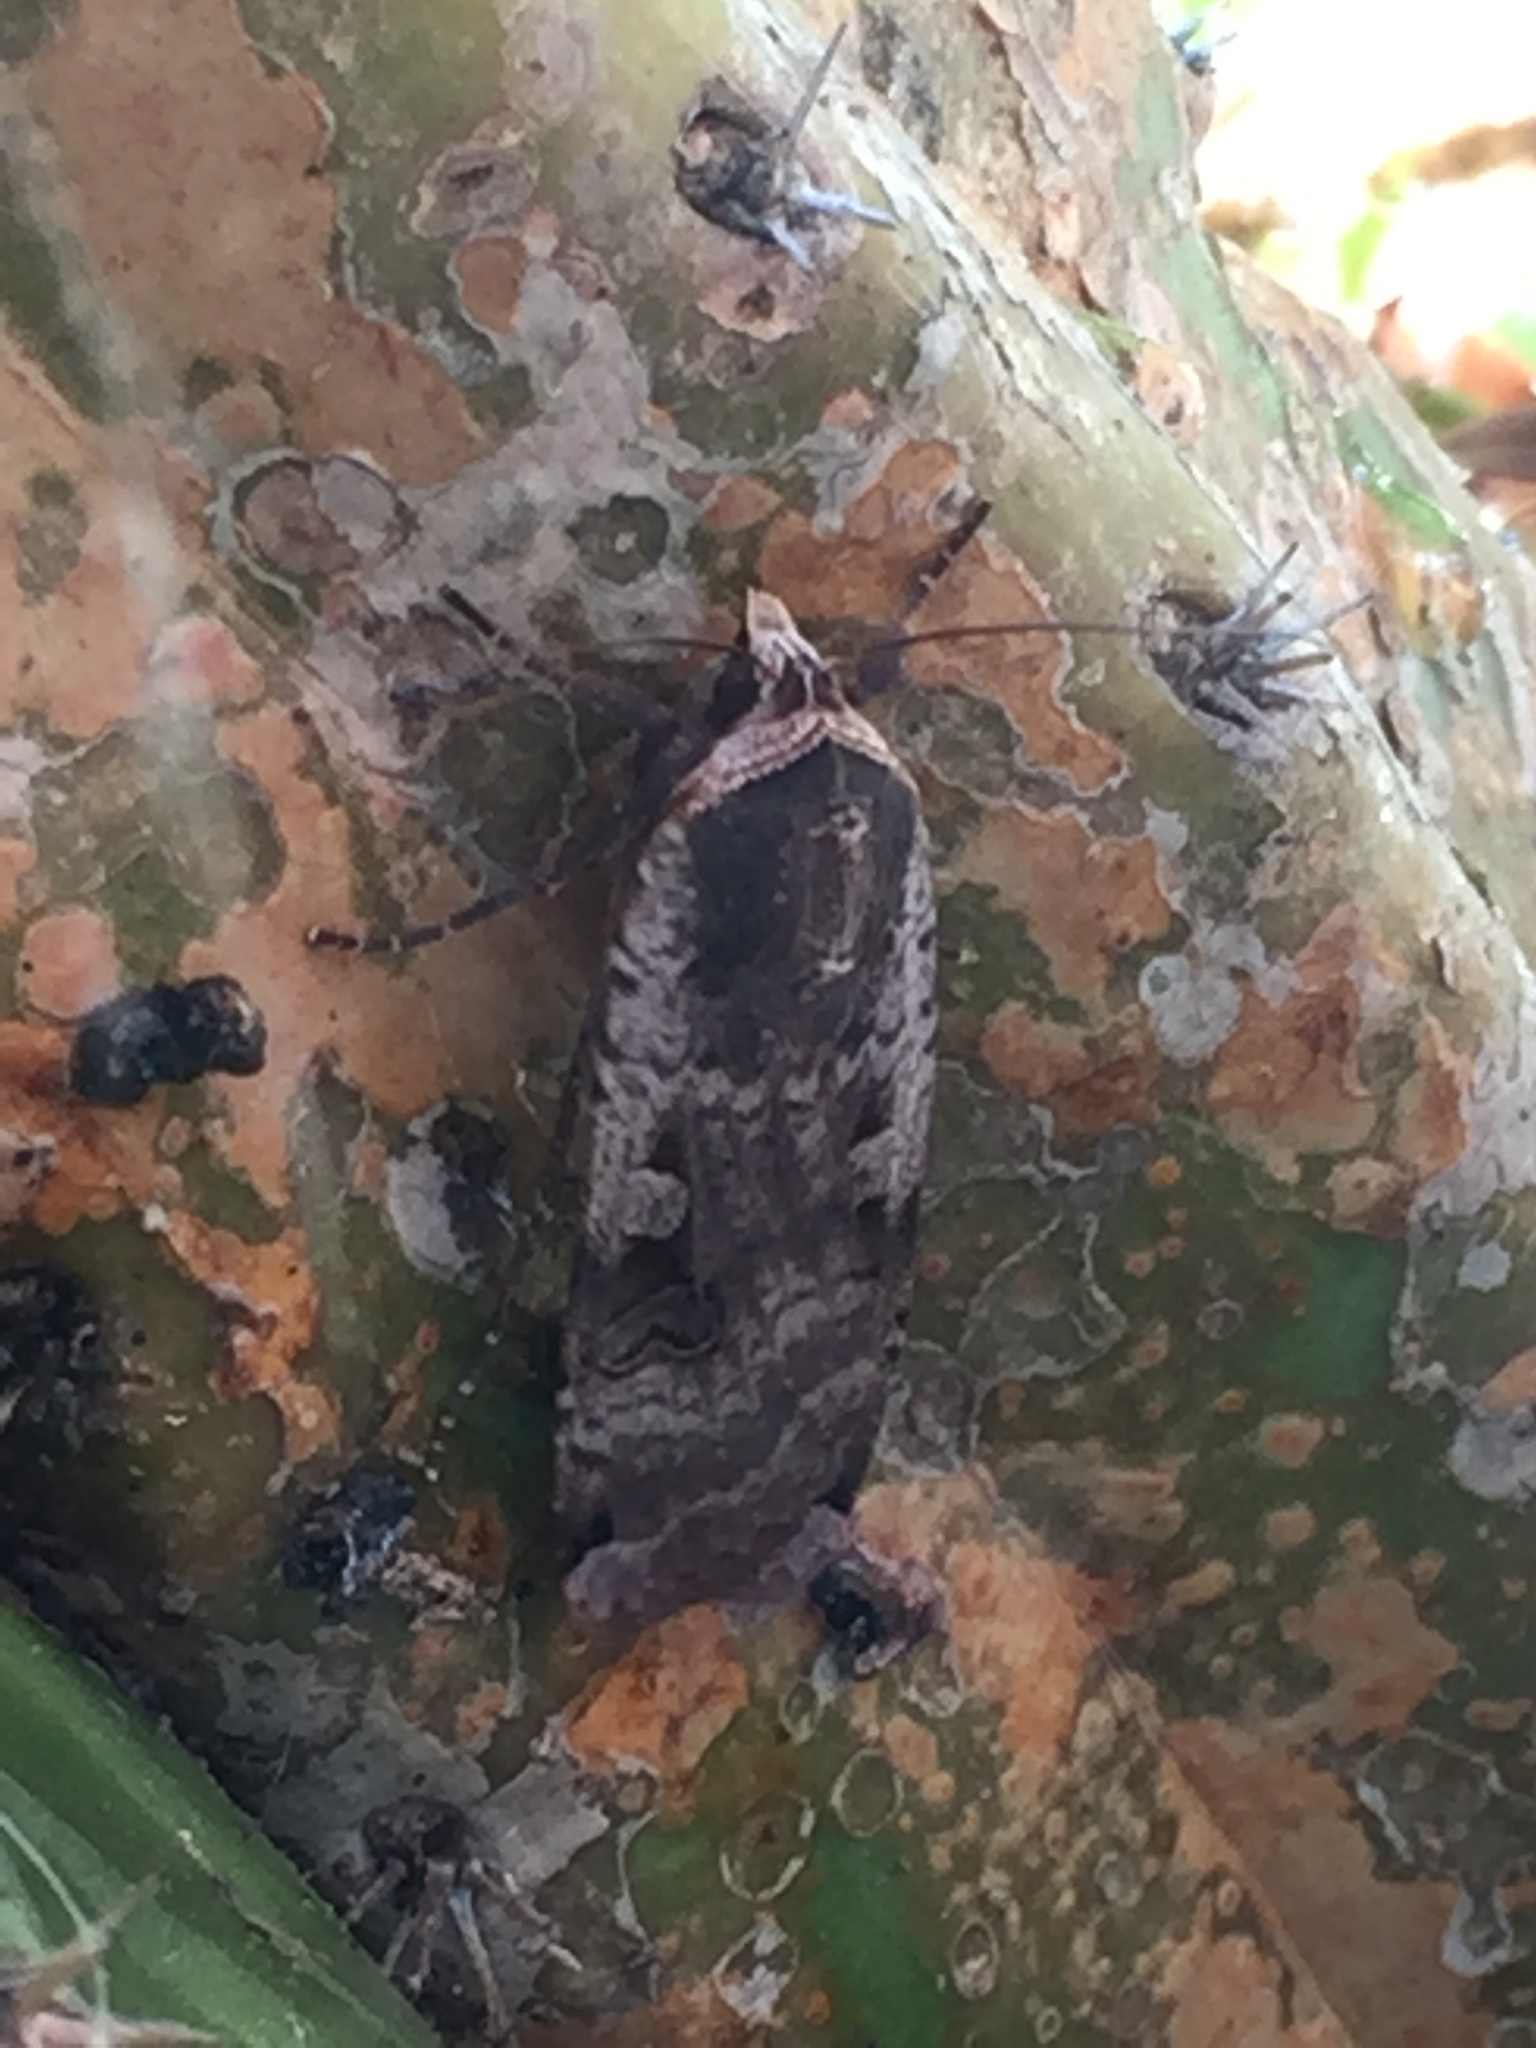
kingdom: Animalia
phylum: Arthropoda
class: Insecta
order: Lepidoptera
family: Noctuidae
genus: Noctua
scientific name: Noctua pronuba
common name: Large yellow underwing
